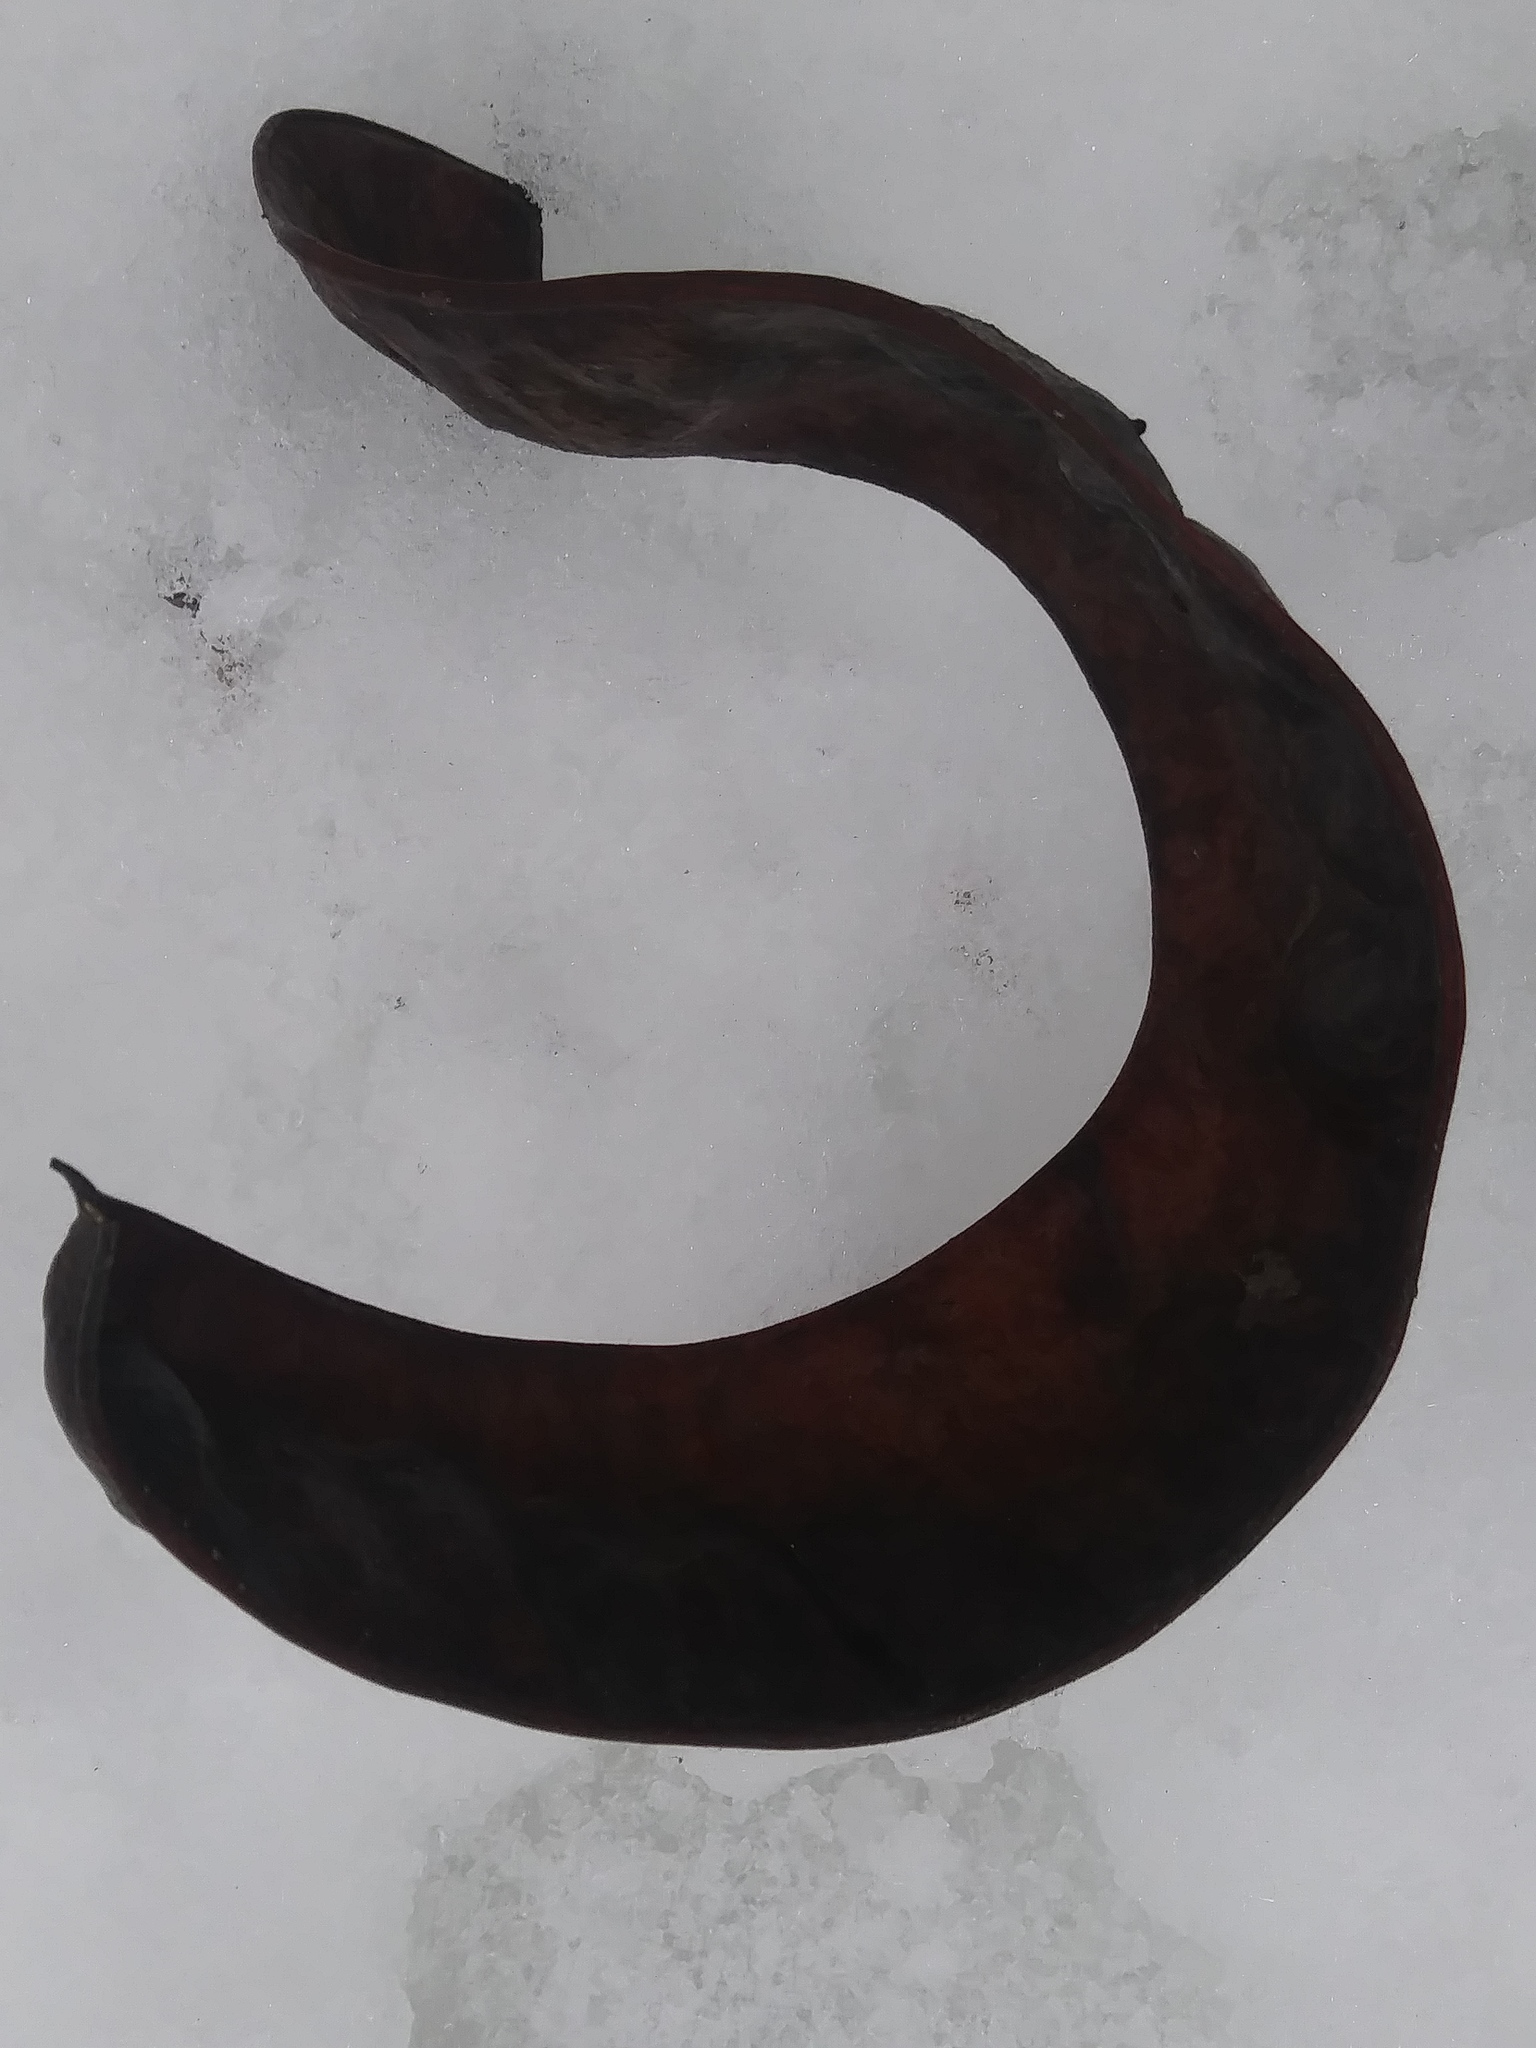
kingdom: Plantae
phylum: Tracheophyta
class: Magnoliopsida
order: Fabales
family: Fabaceae
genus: Gleditsia
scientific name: Gleditsia triacanthos
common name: Common honeylocust
